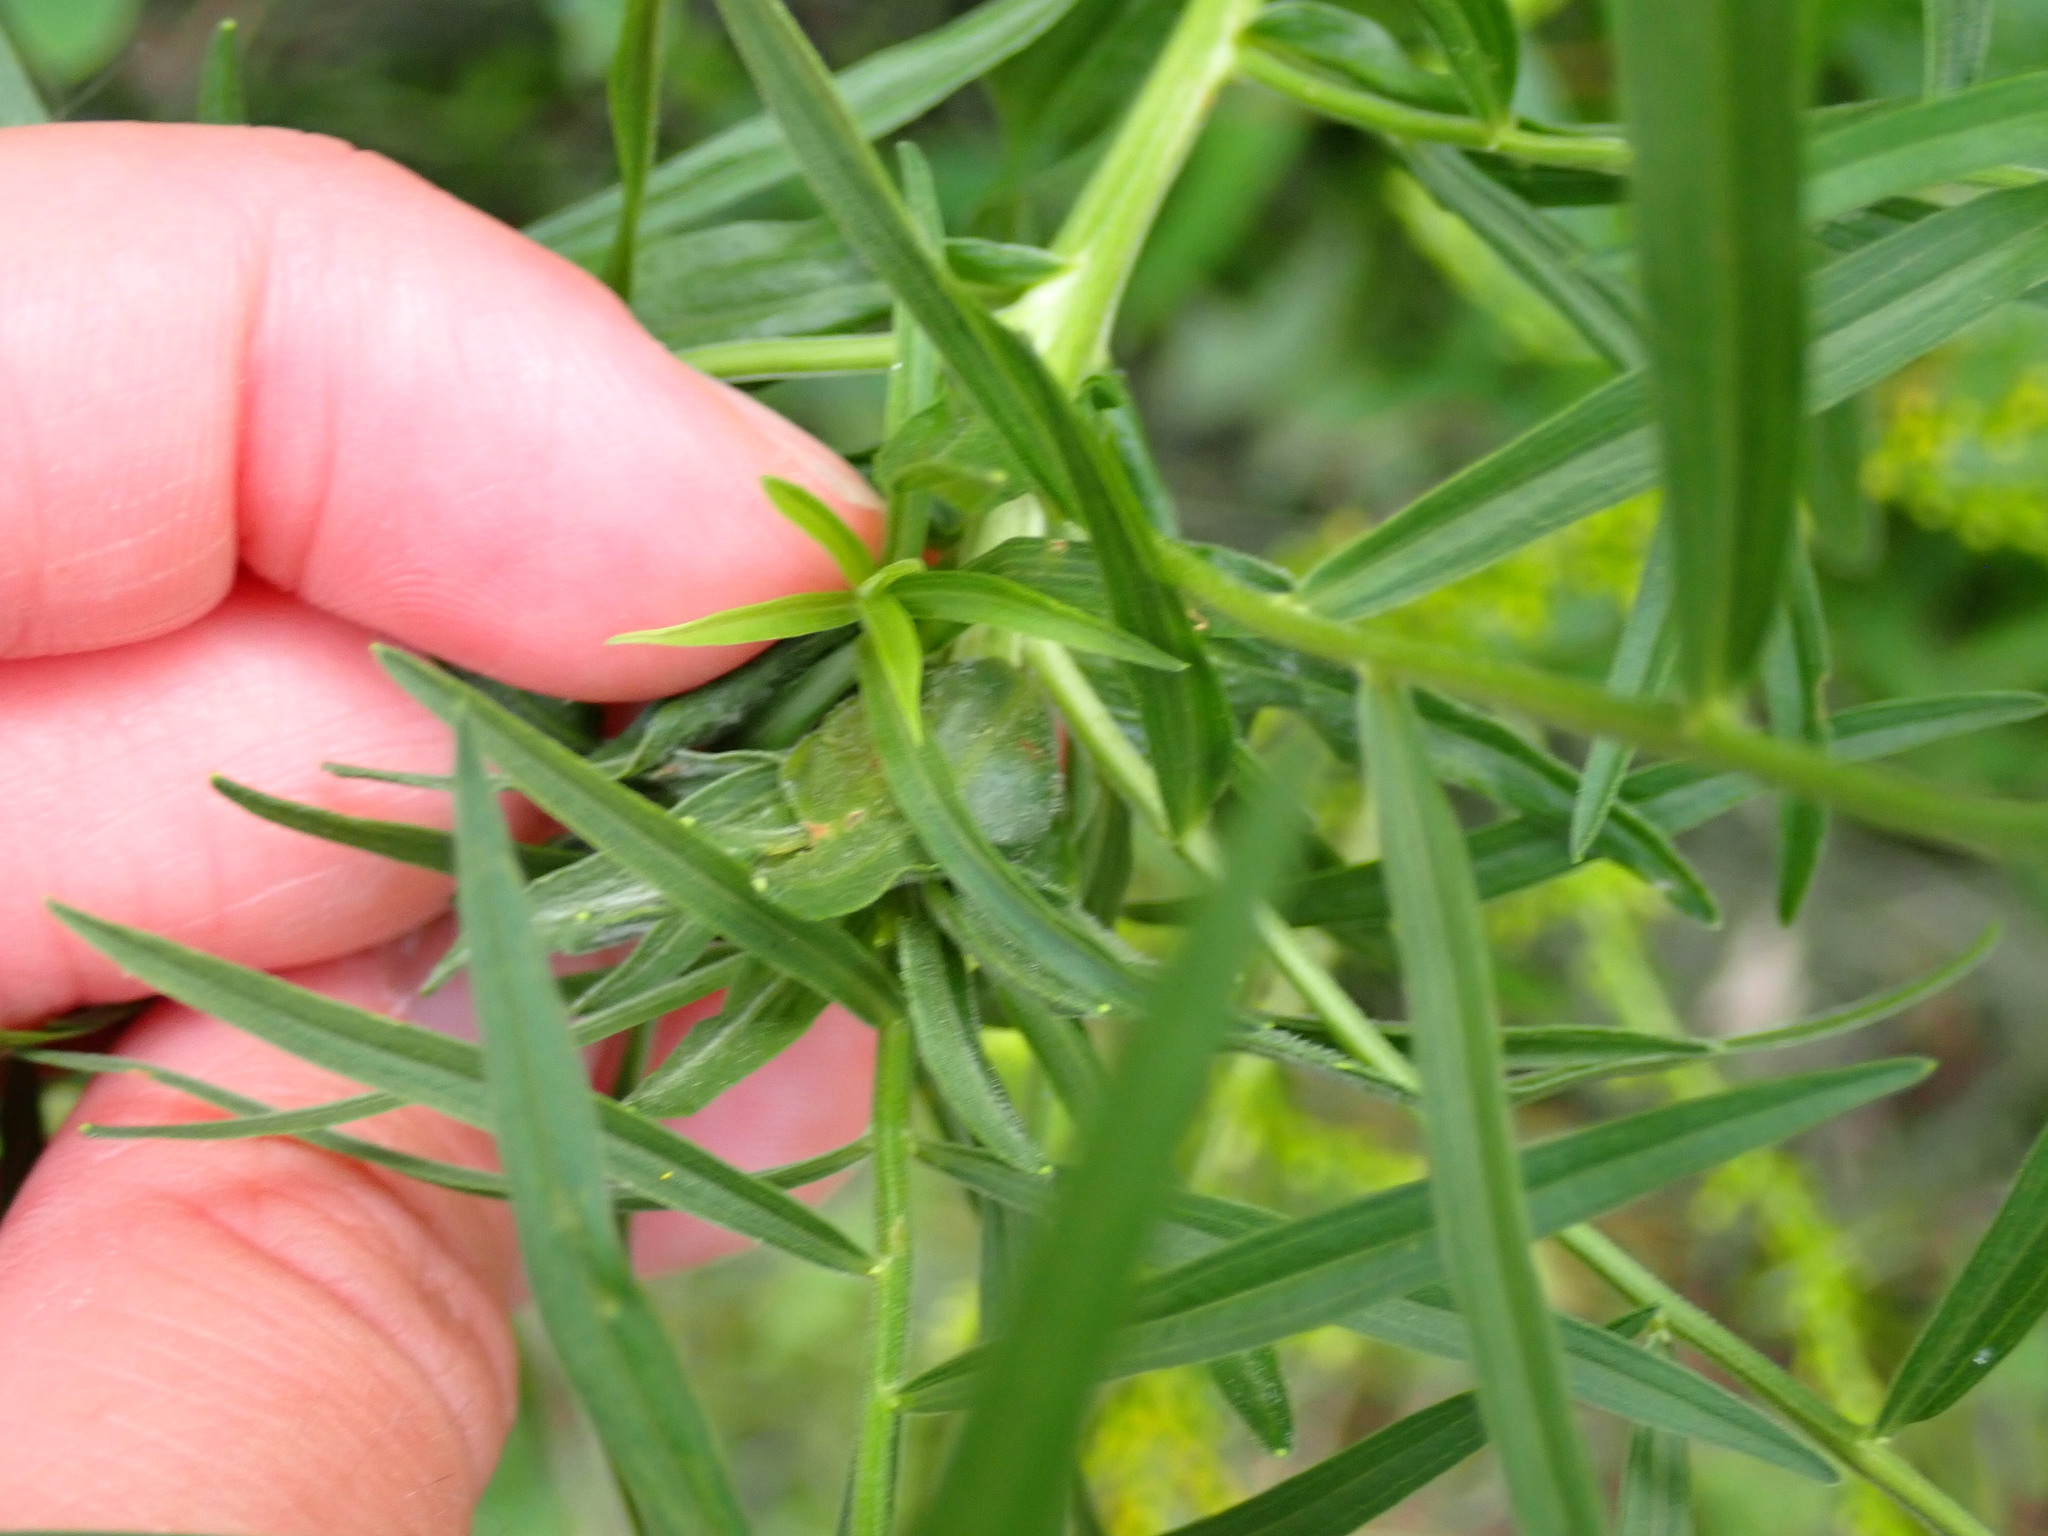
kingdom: Animalia
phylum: Arthropoda
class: Insecta
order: Diptera
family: Cecidomyiidae
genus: Asphondylia
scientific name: Asphondylia pseudorosa
